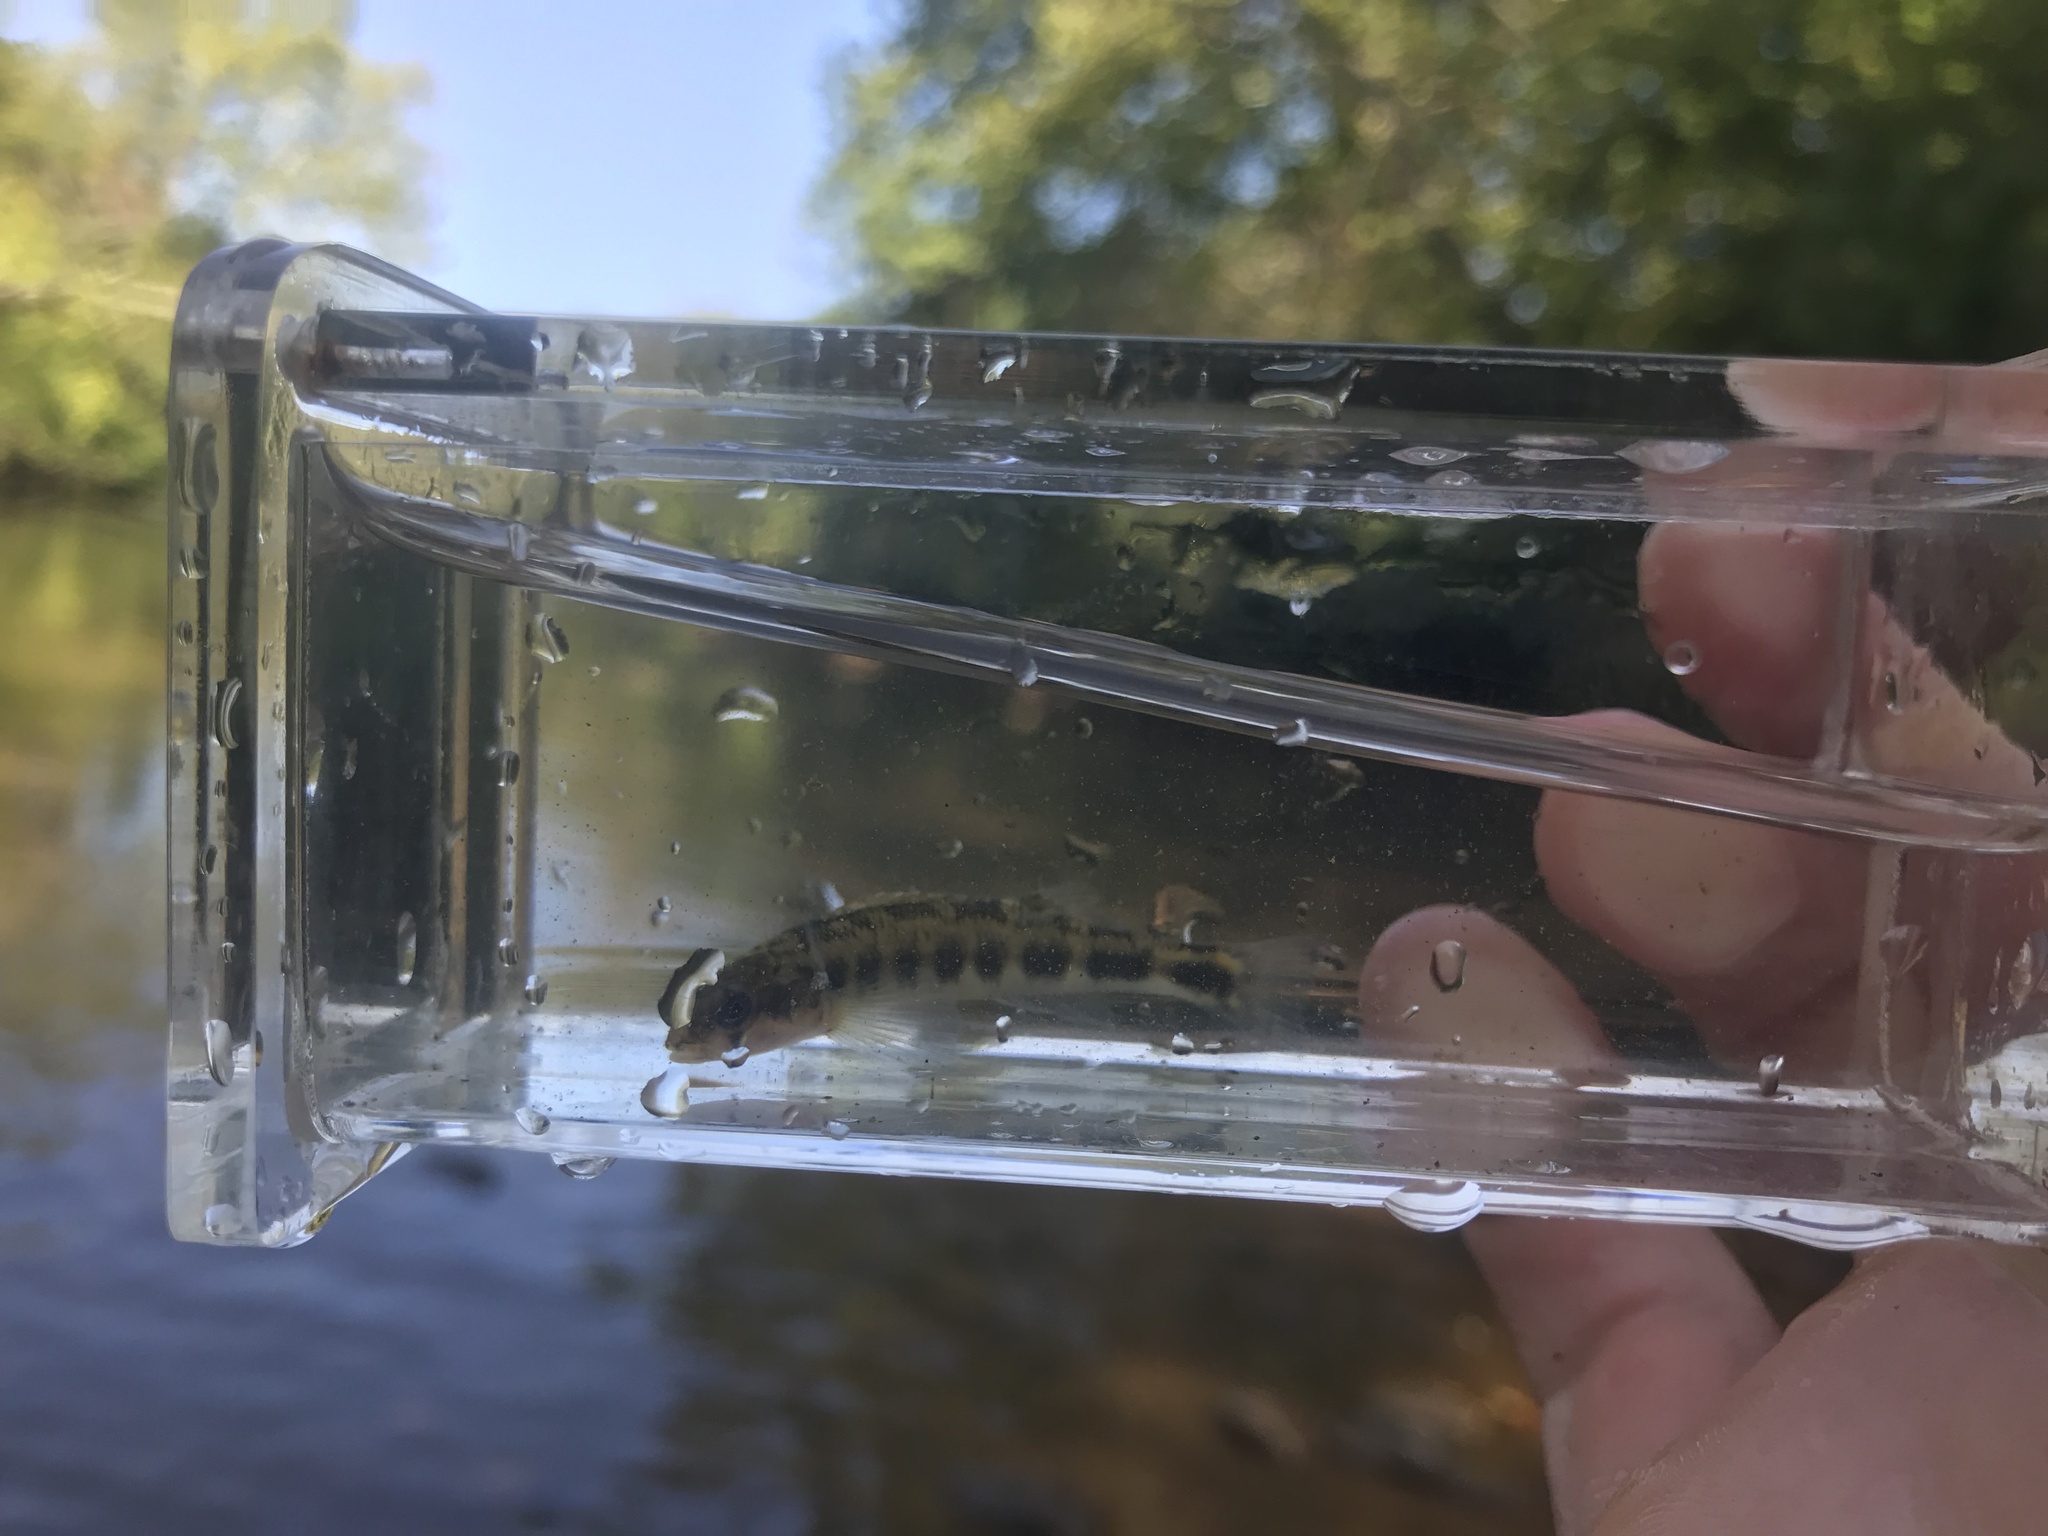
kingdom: Animalia
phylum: Chordata
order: Perciformes
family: Percidae
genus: Percina
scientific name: Percina evides
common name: Gilt darter
